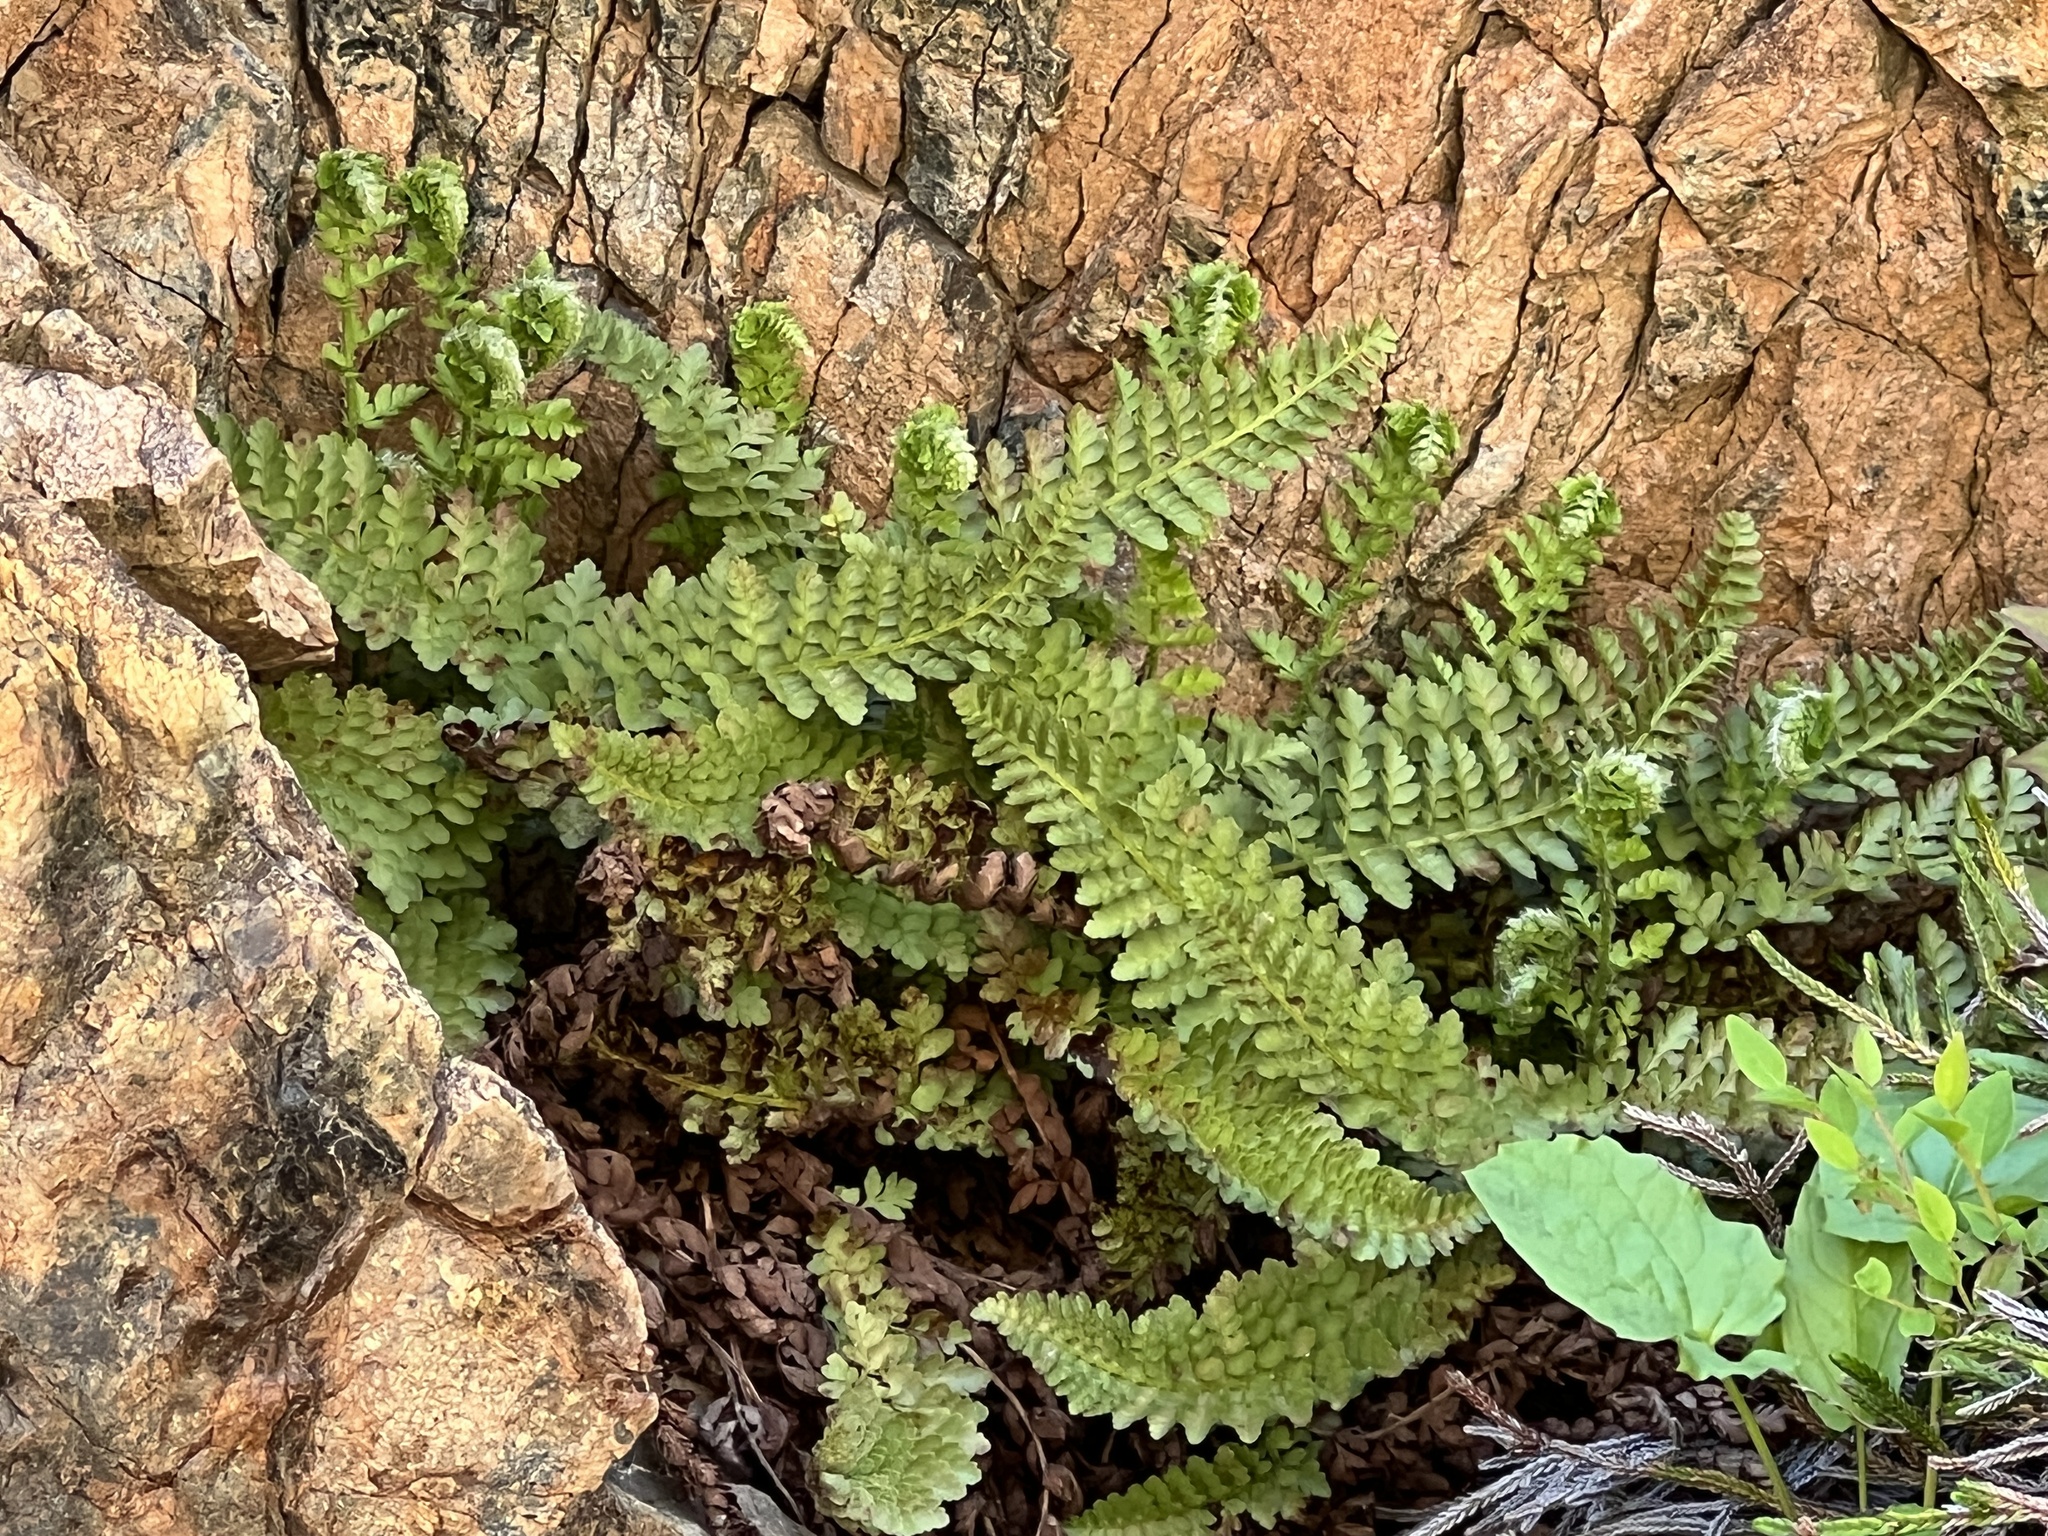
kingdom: Plantae
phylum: Tracheophyta
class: Polypodiopsida
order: Polypodiales
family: Dryopteridaceae
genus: Polystichum
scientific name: Polystichum lemmonii
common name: Lemmon's holly fern
